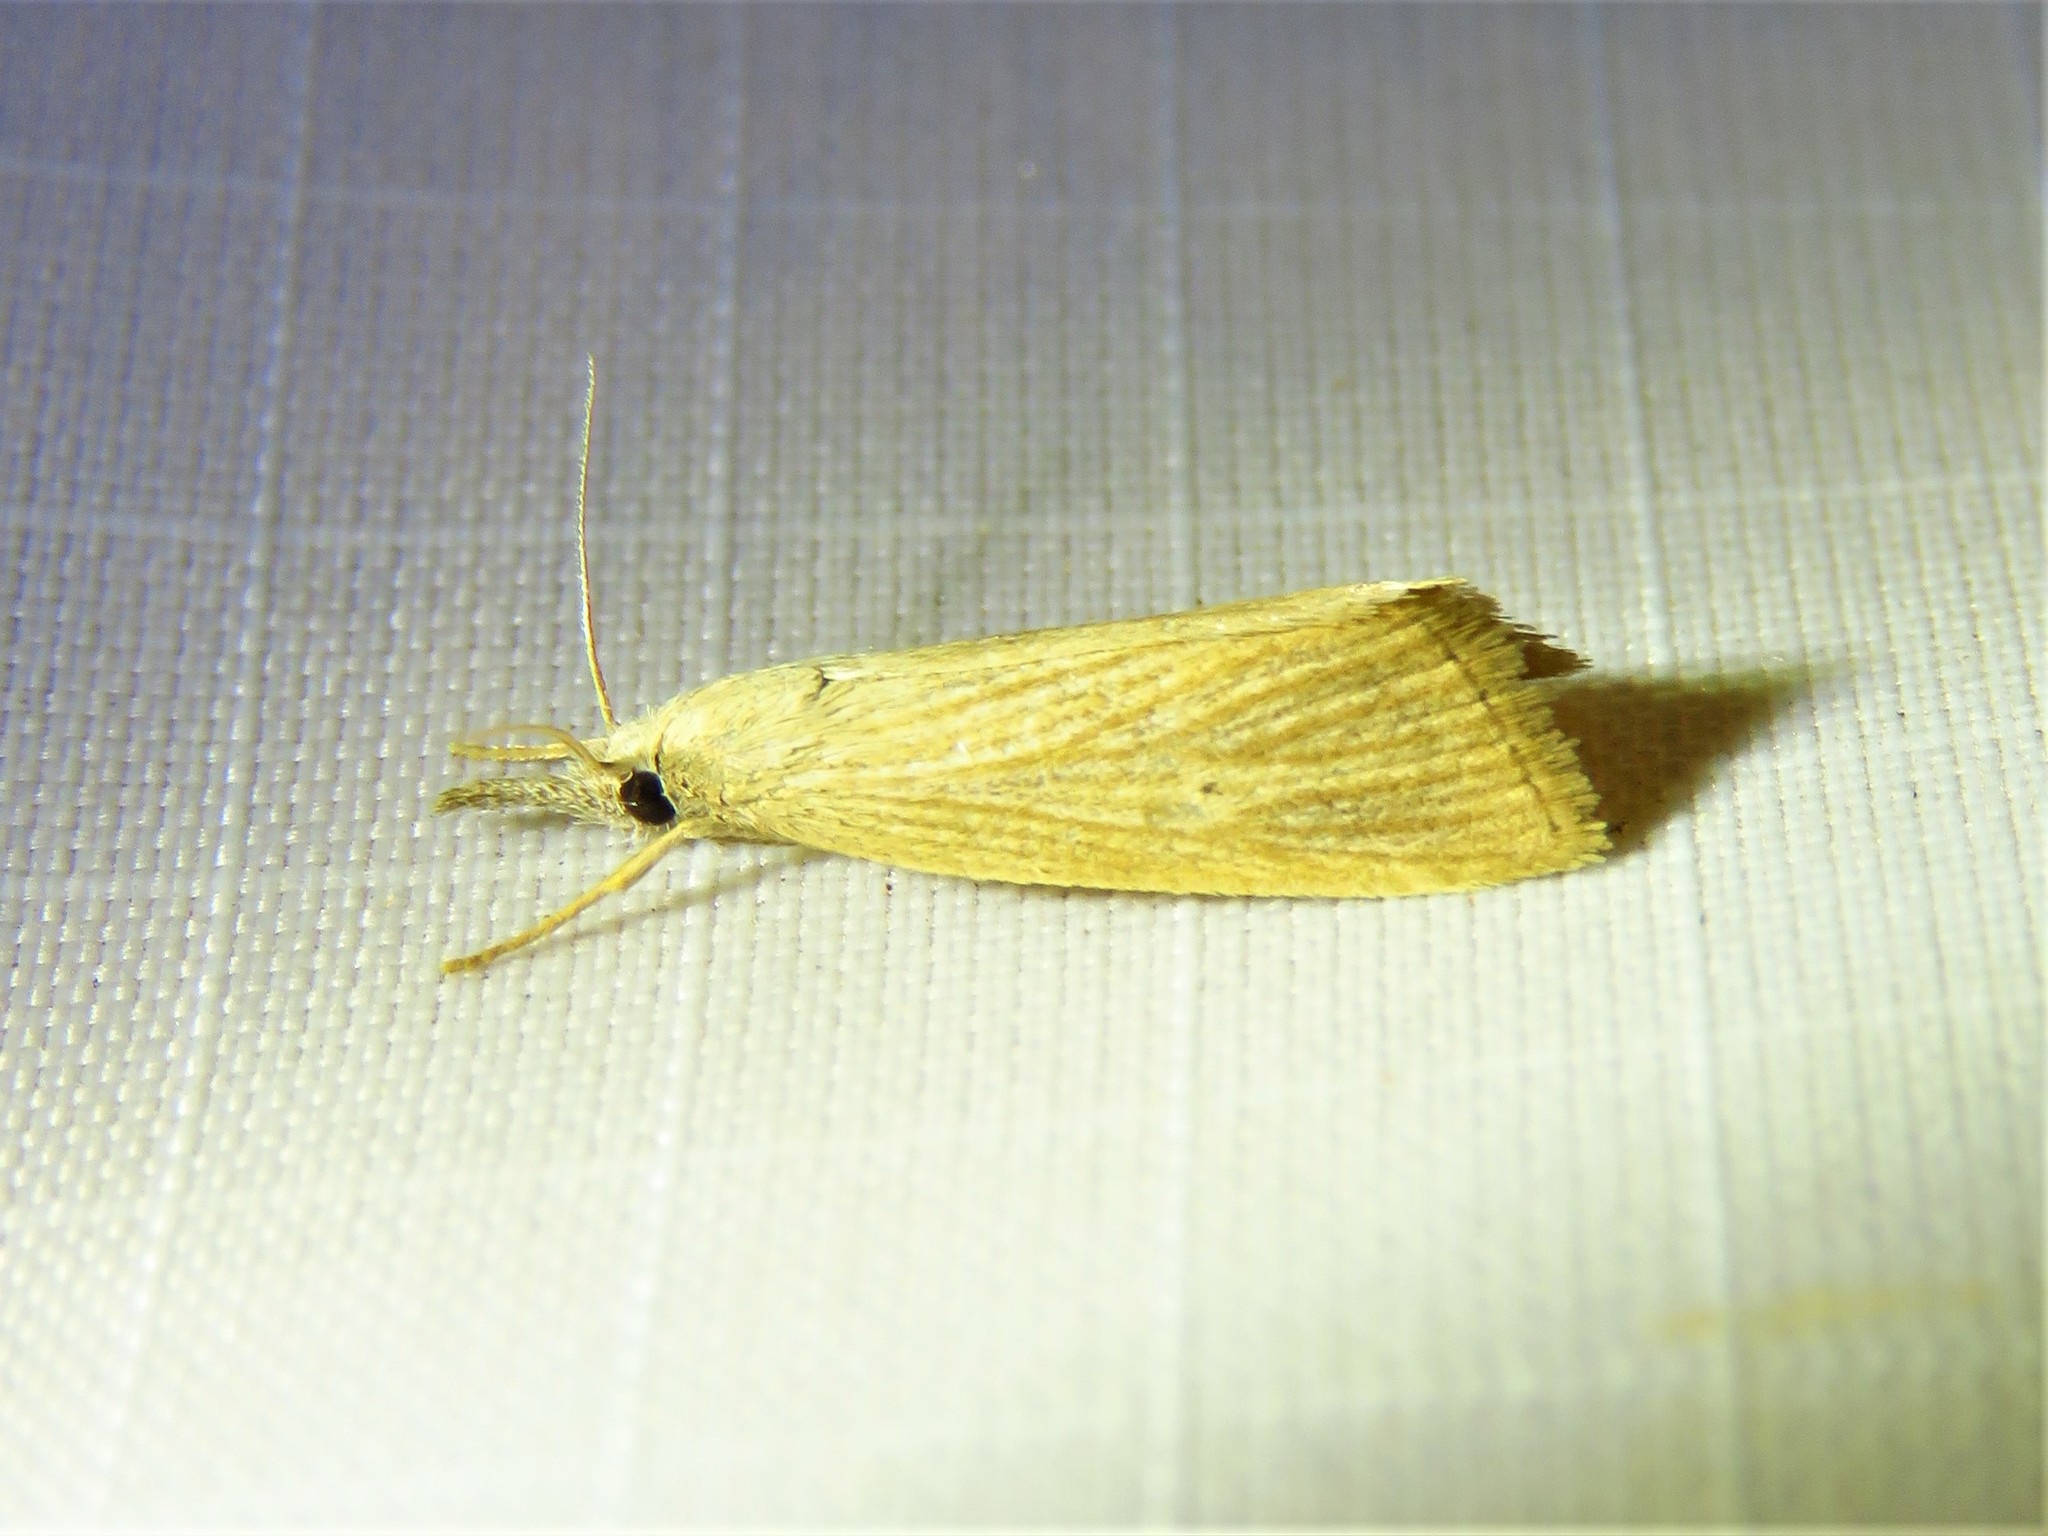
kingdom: Animalia
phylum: Arthropoda
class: Insecta
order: Lepidoptera
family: Crambidae
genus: Diatraea
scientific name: Diatraea evanescens
